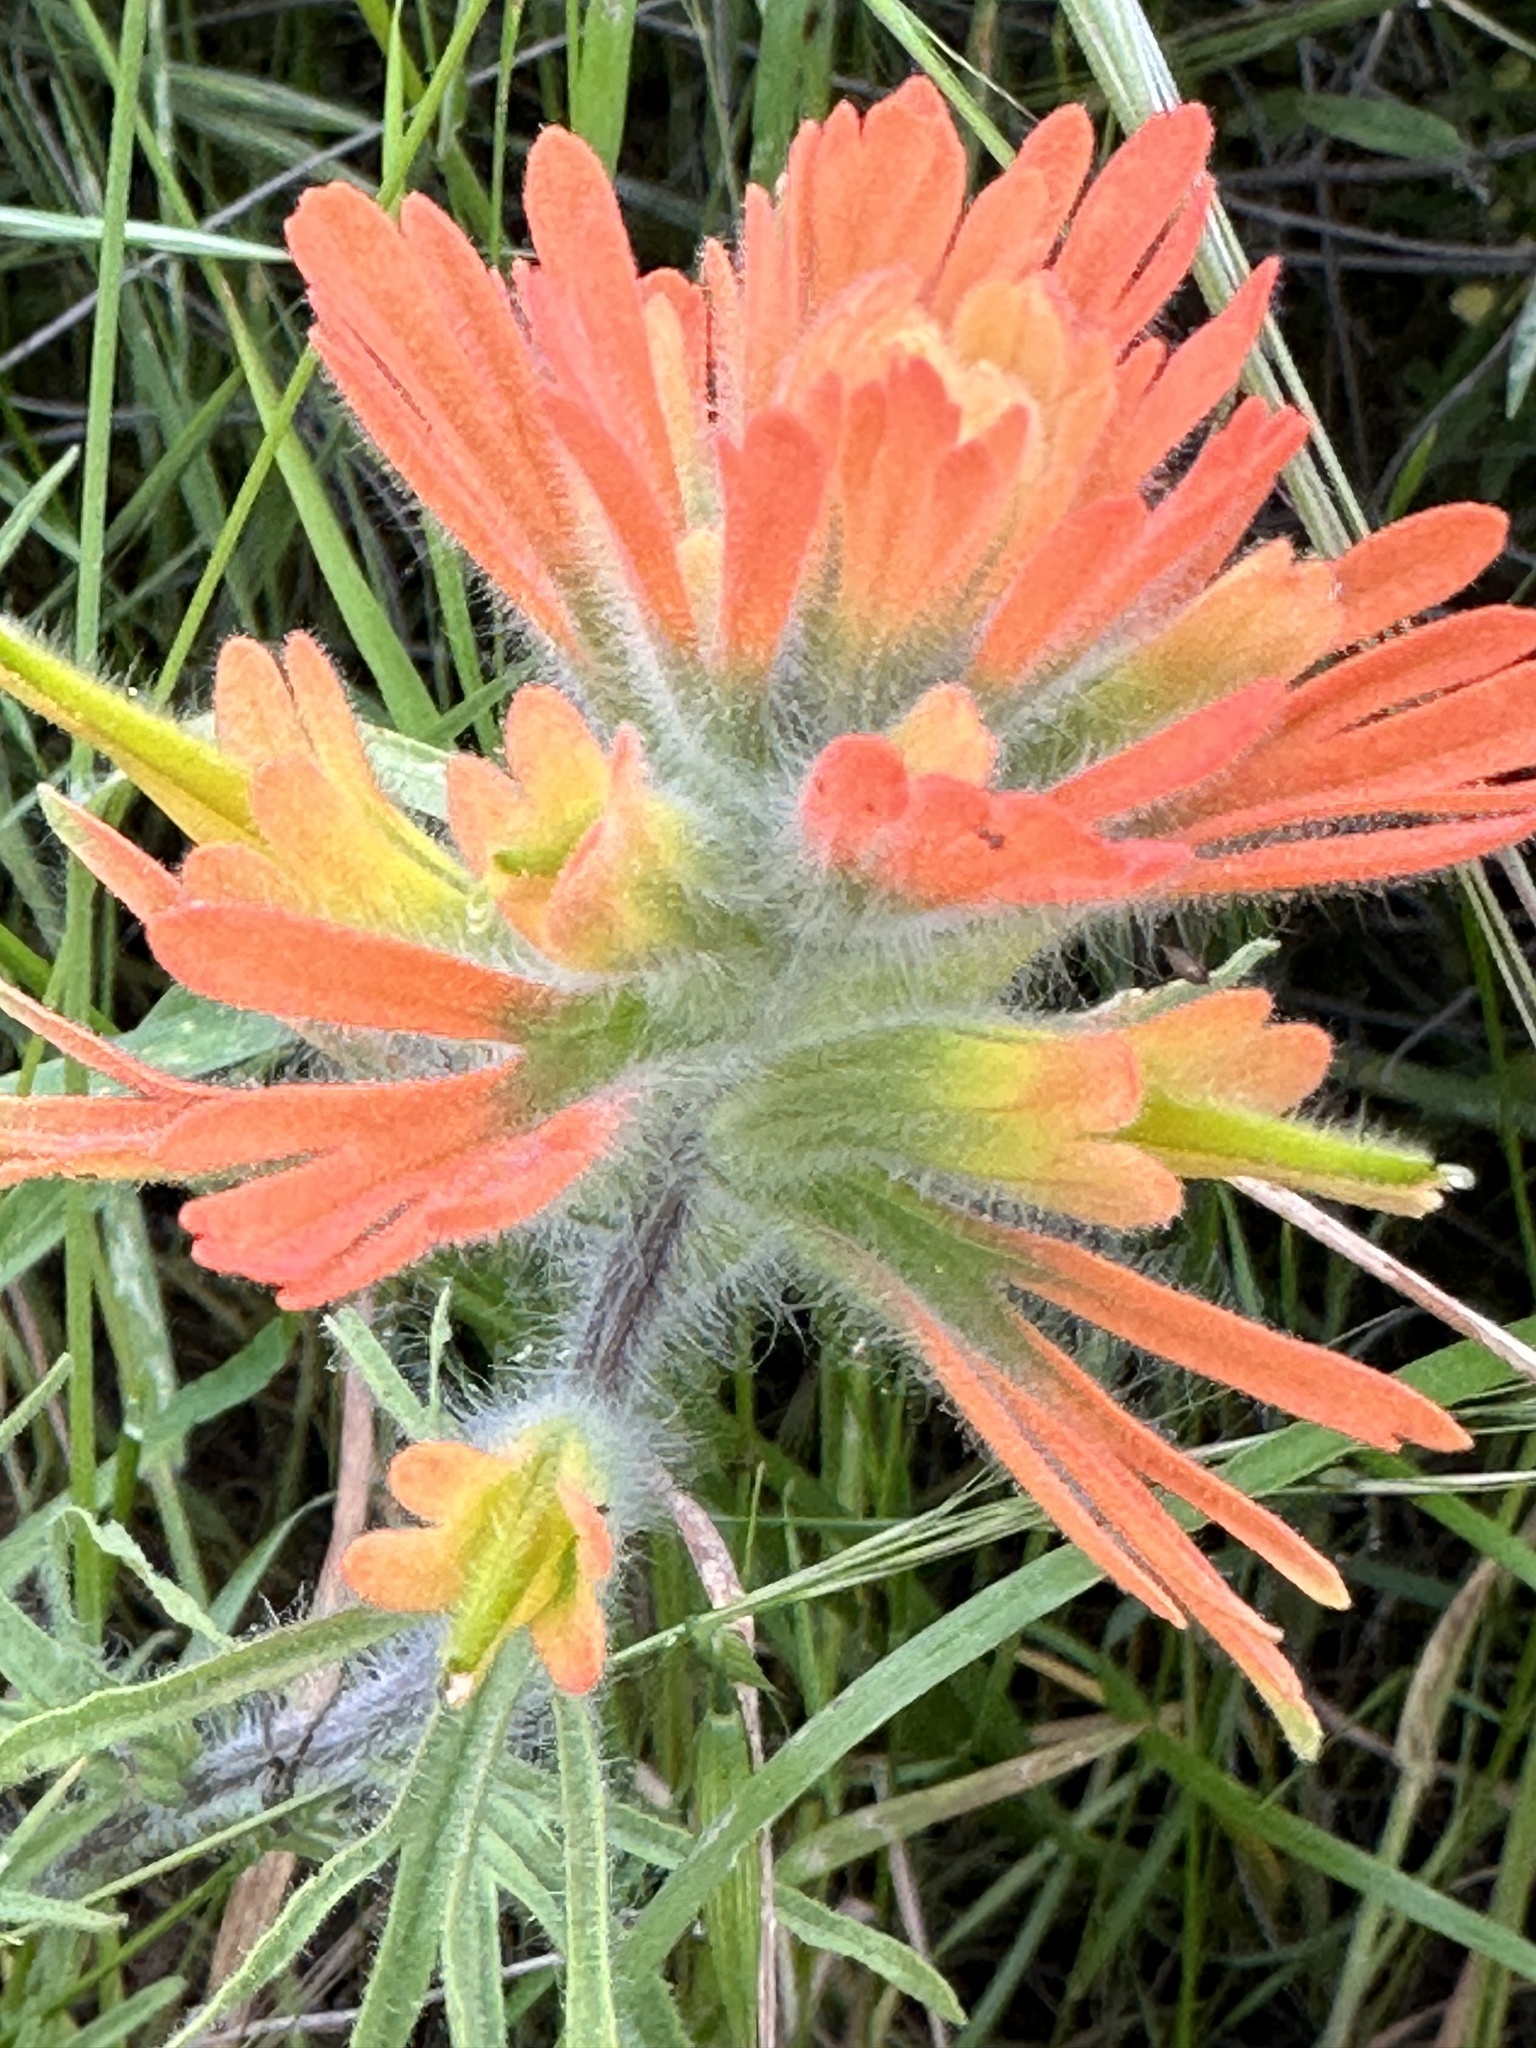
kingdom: Plantae
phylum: Tracheophyta
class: Magnoliopsida
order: Lamiales
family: Orobanchaceae
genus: Castilleja
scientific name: Castilleja affinis
